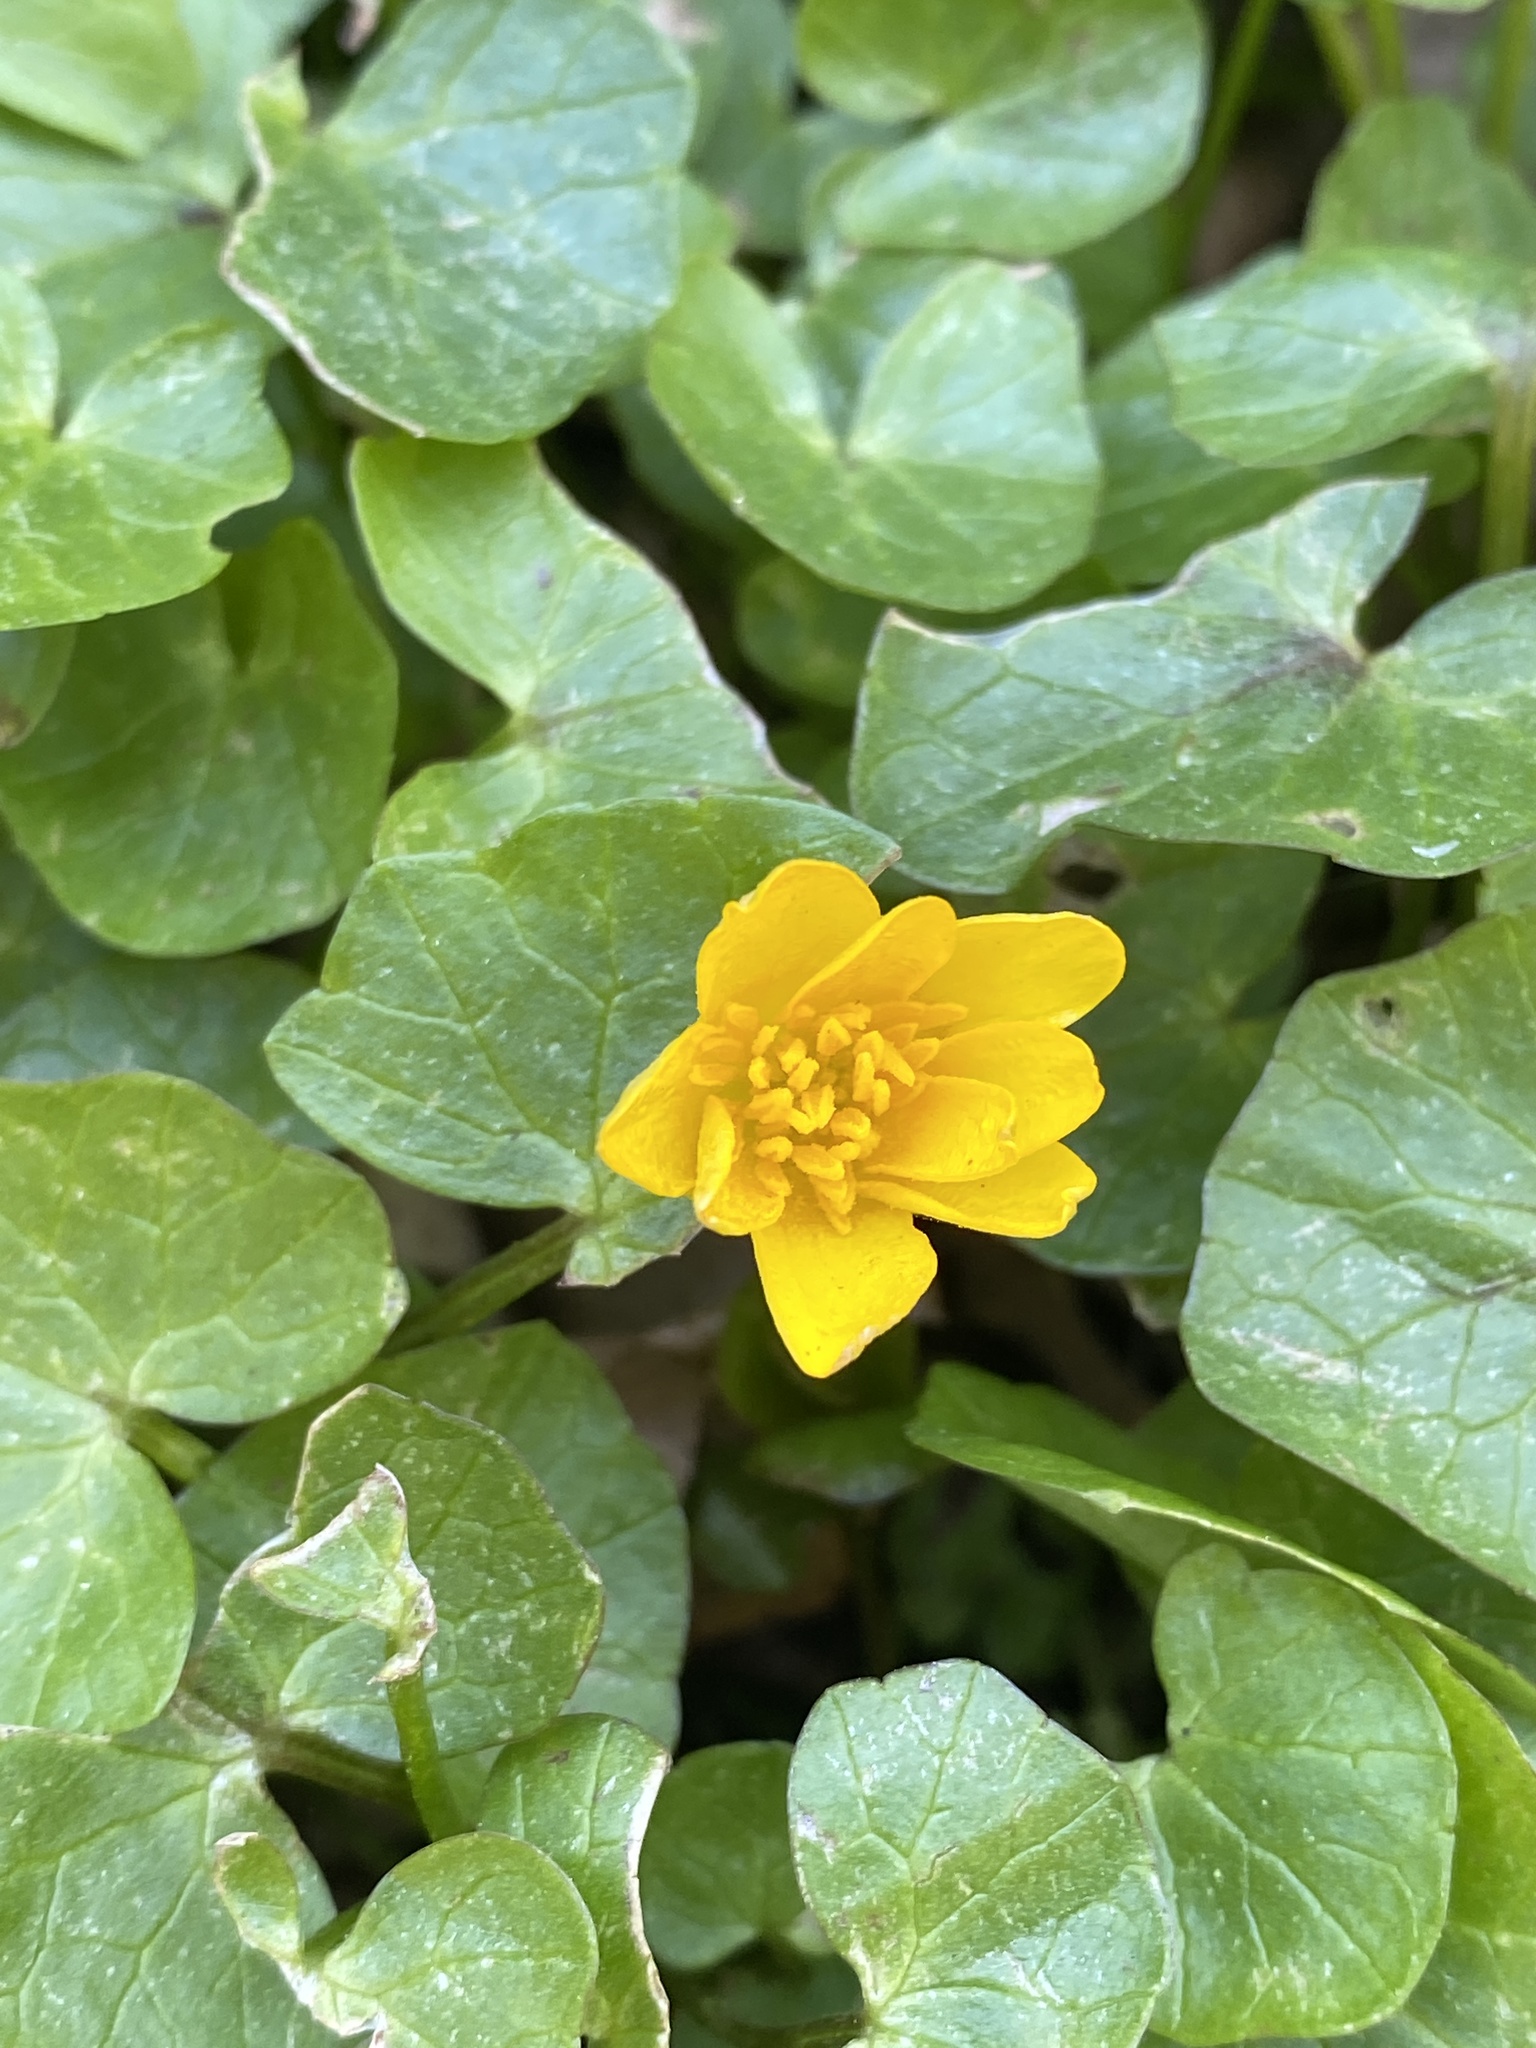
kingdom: Plantae
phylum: Tracheophyta
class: Magnoliopsida
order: Ranunculales
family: Ranunculaceae
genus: Ficaria
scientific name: Ficaria verna
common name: Lesser celandine
